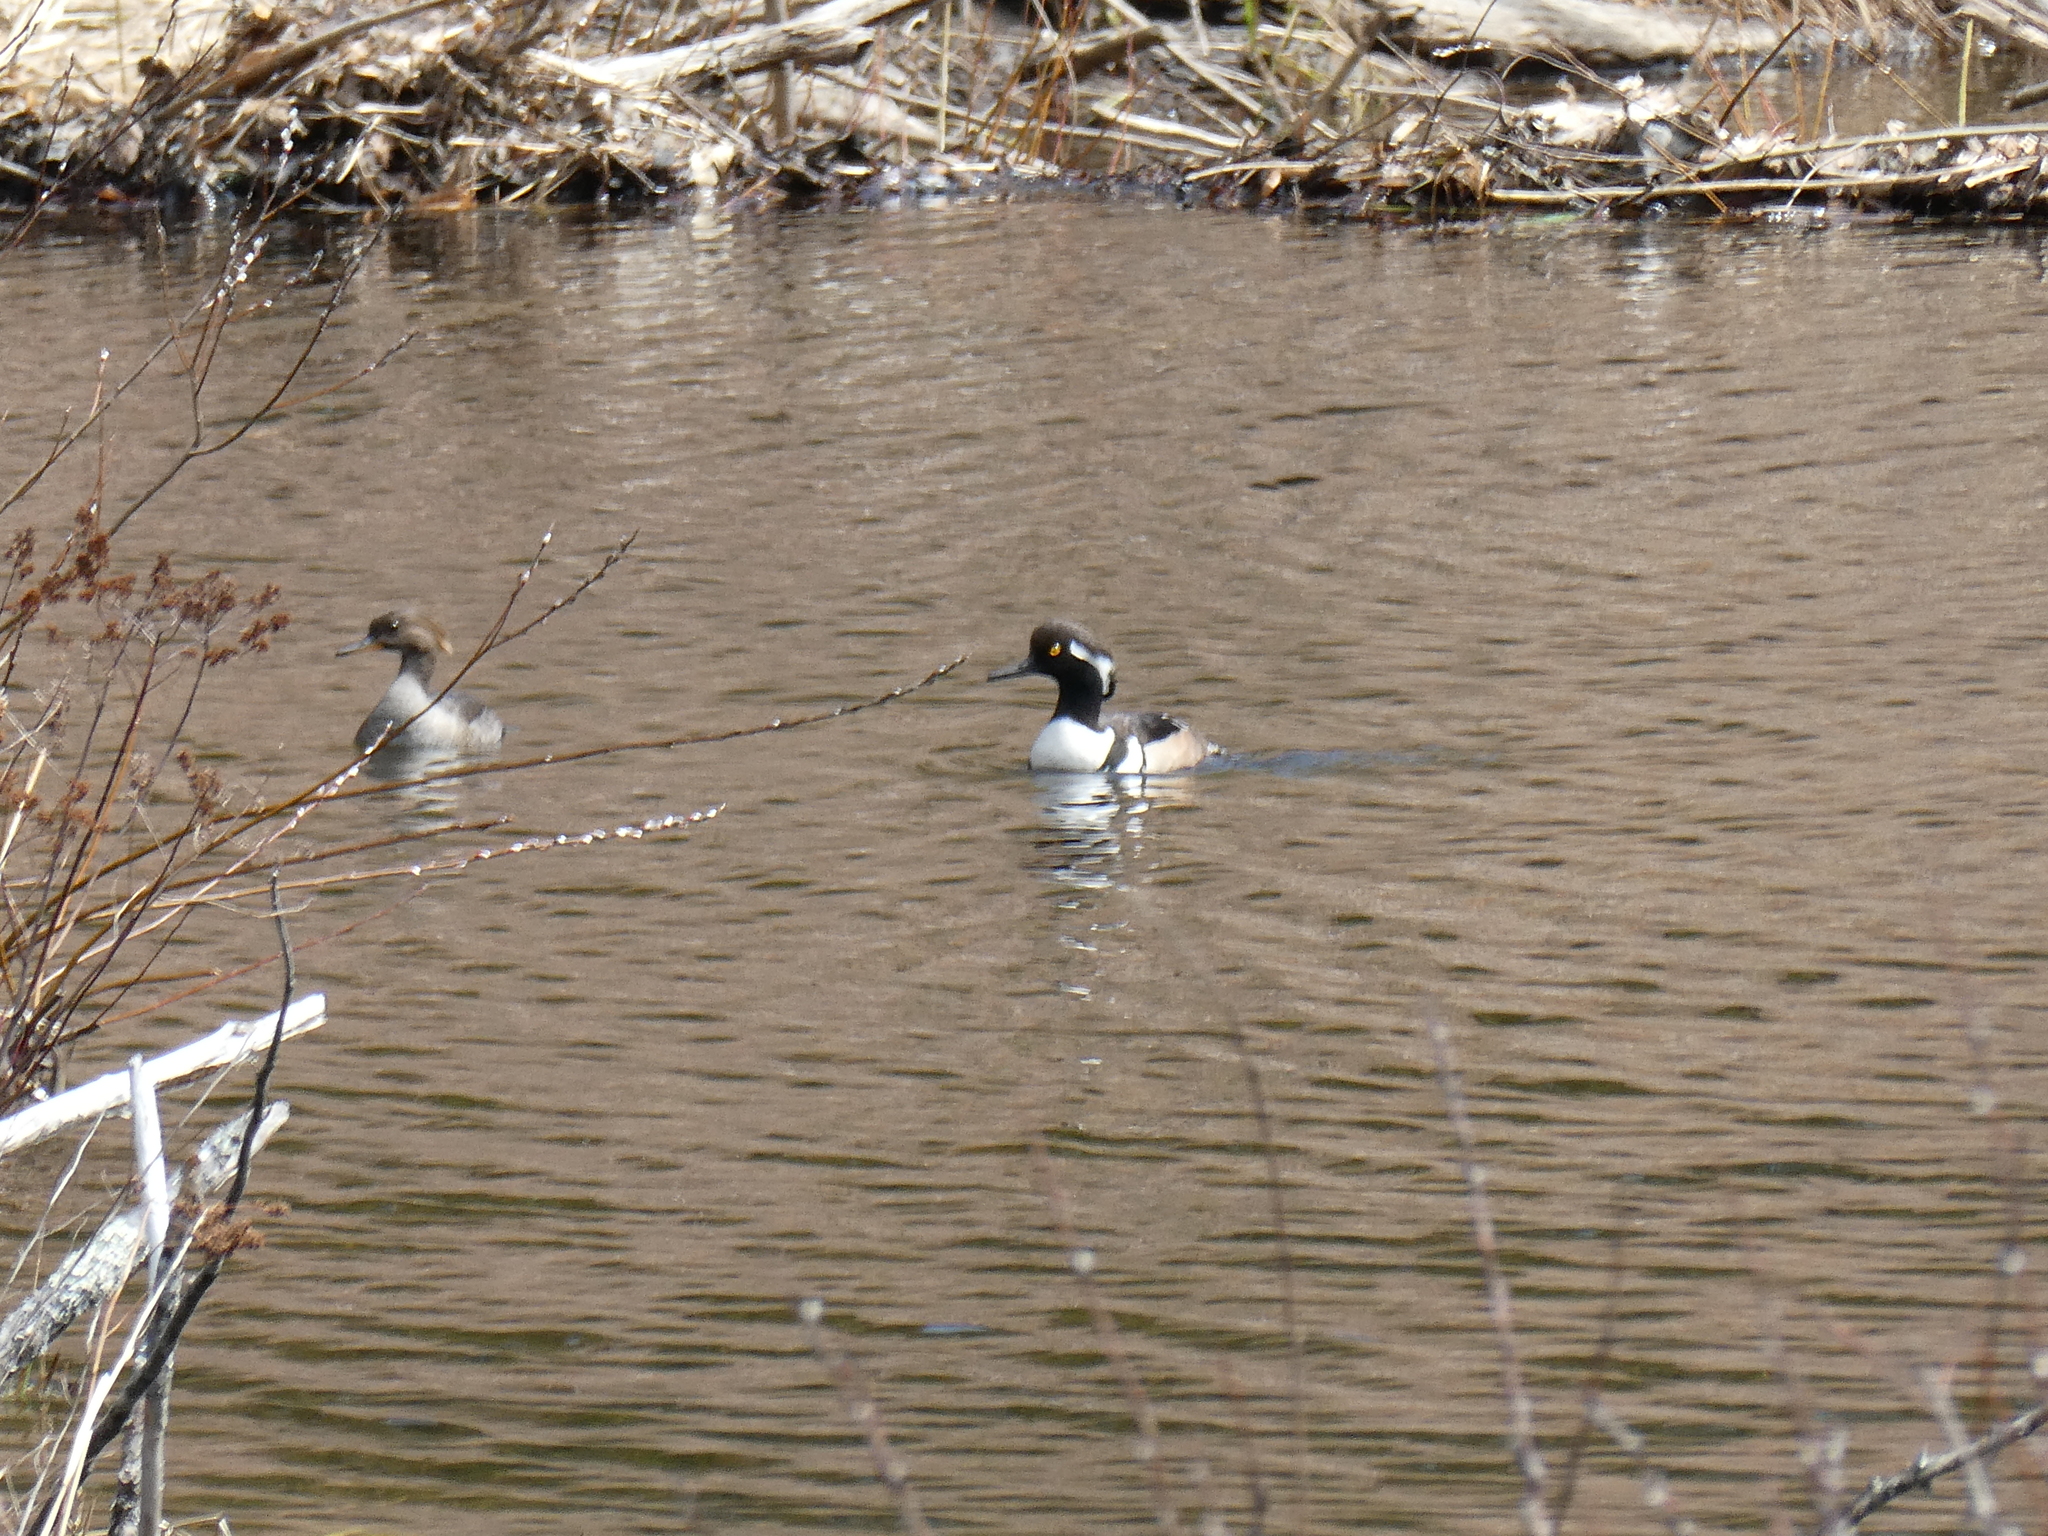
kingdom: Animalia
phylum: Chordata
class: Aves
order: Anseriformes
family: Anatidae
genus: Lophodytes
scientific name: Lophodytes cucullatus
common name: Hooded merganser
